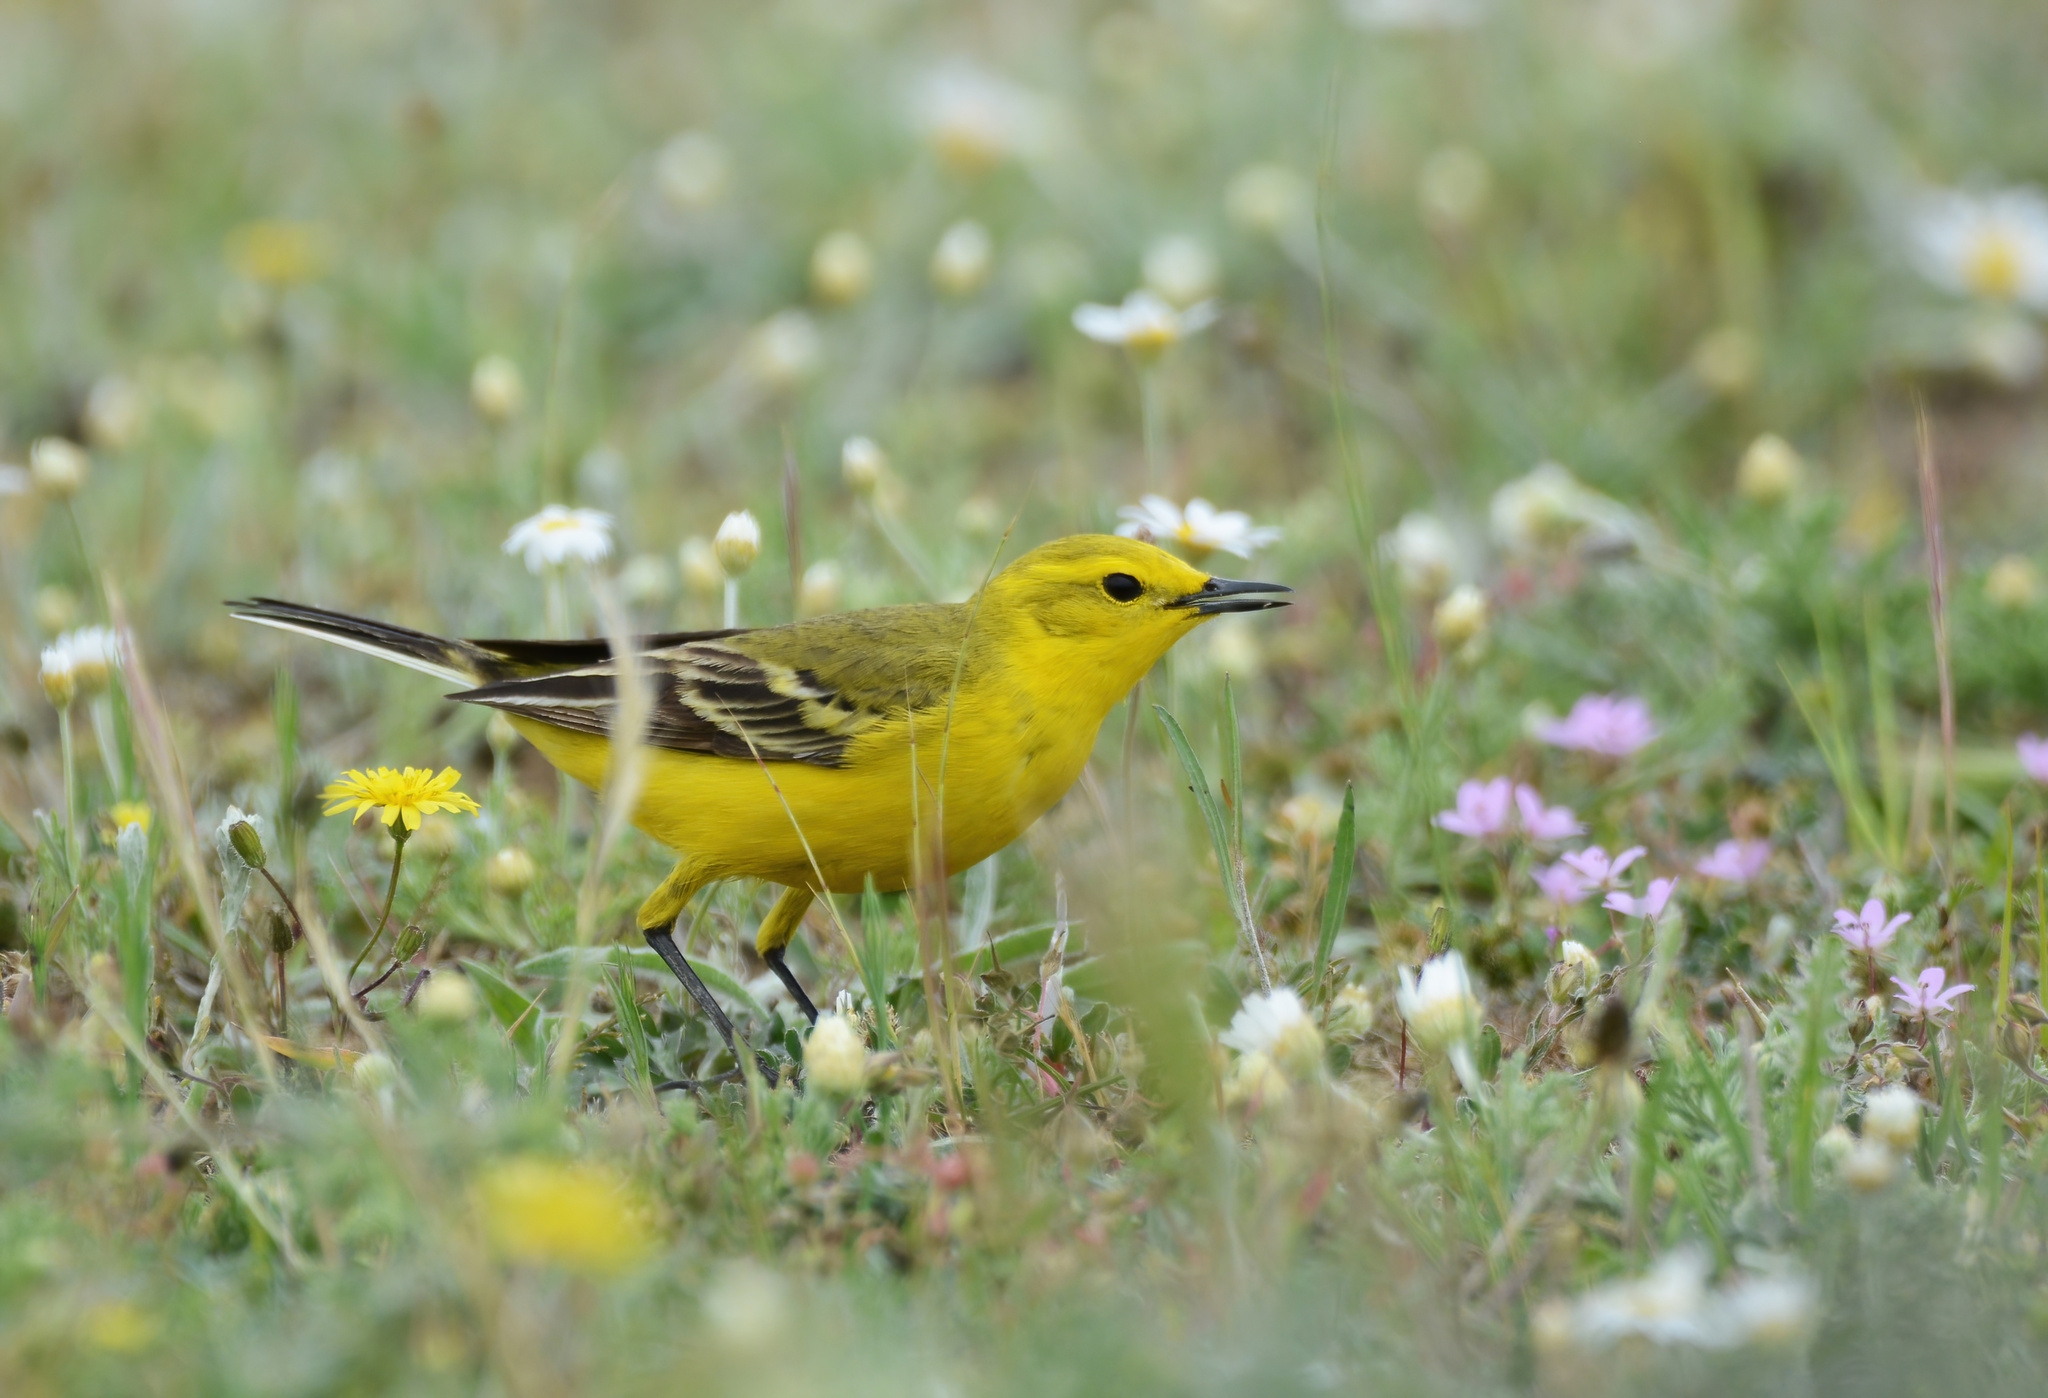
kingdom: Animalia
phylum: Chordata
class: Aves
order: Passeriformes
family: Motacillidae
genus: Motacilla
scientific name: Motacilla flava
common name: Western yellow wagtail
